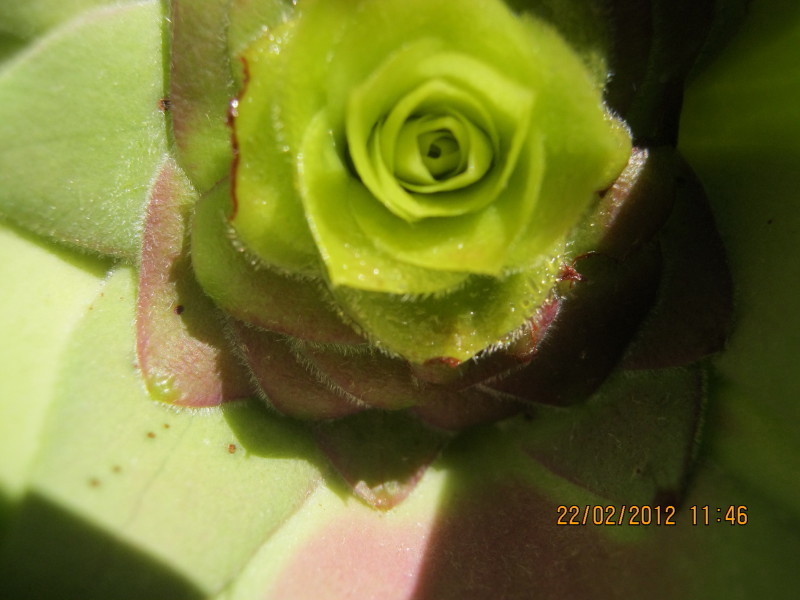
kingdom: Plantae
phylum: Tracheophyta
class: Magnoliopsida
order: Proteales
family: Proteaceae
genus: Leucadendron
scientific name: Leucadendron cordatum
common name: Droopy conebush
